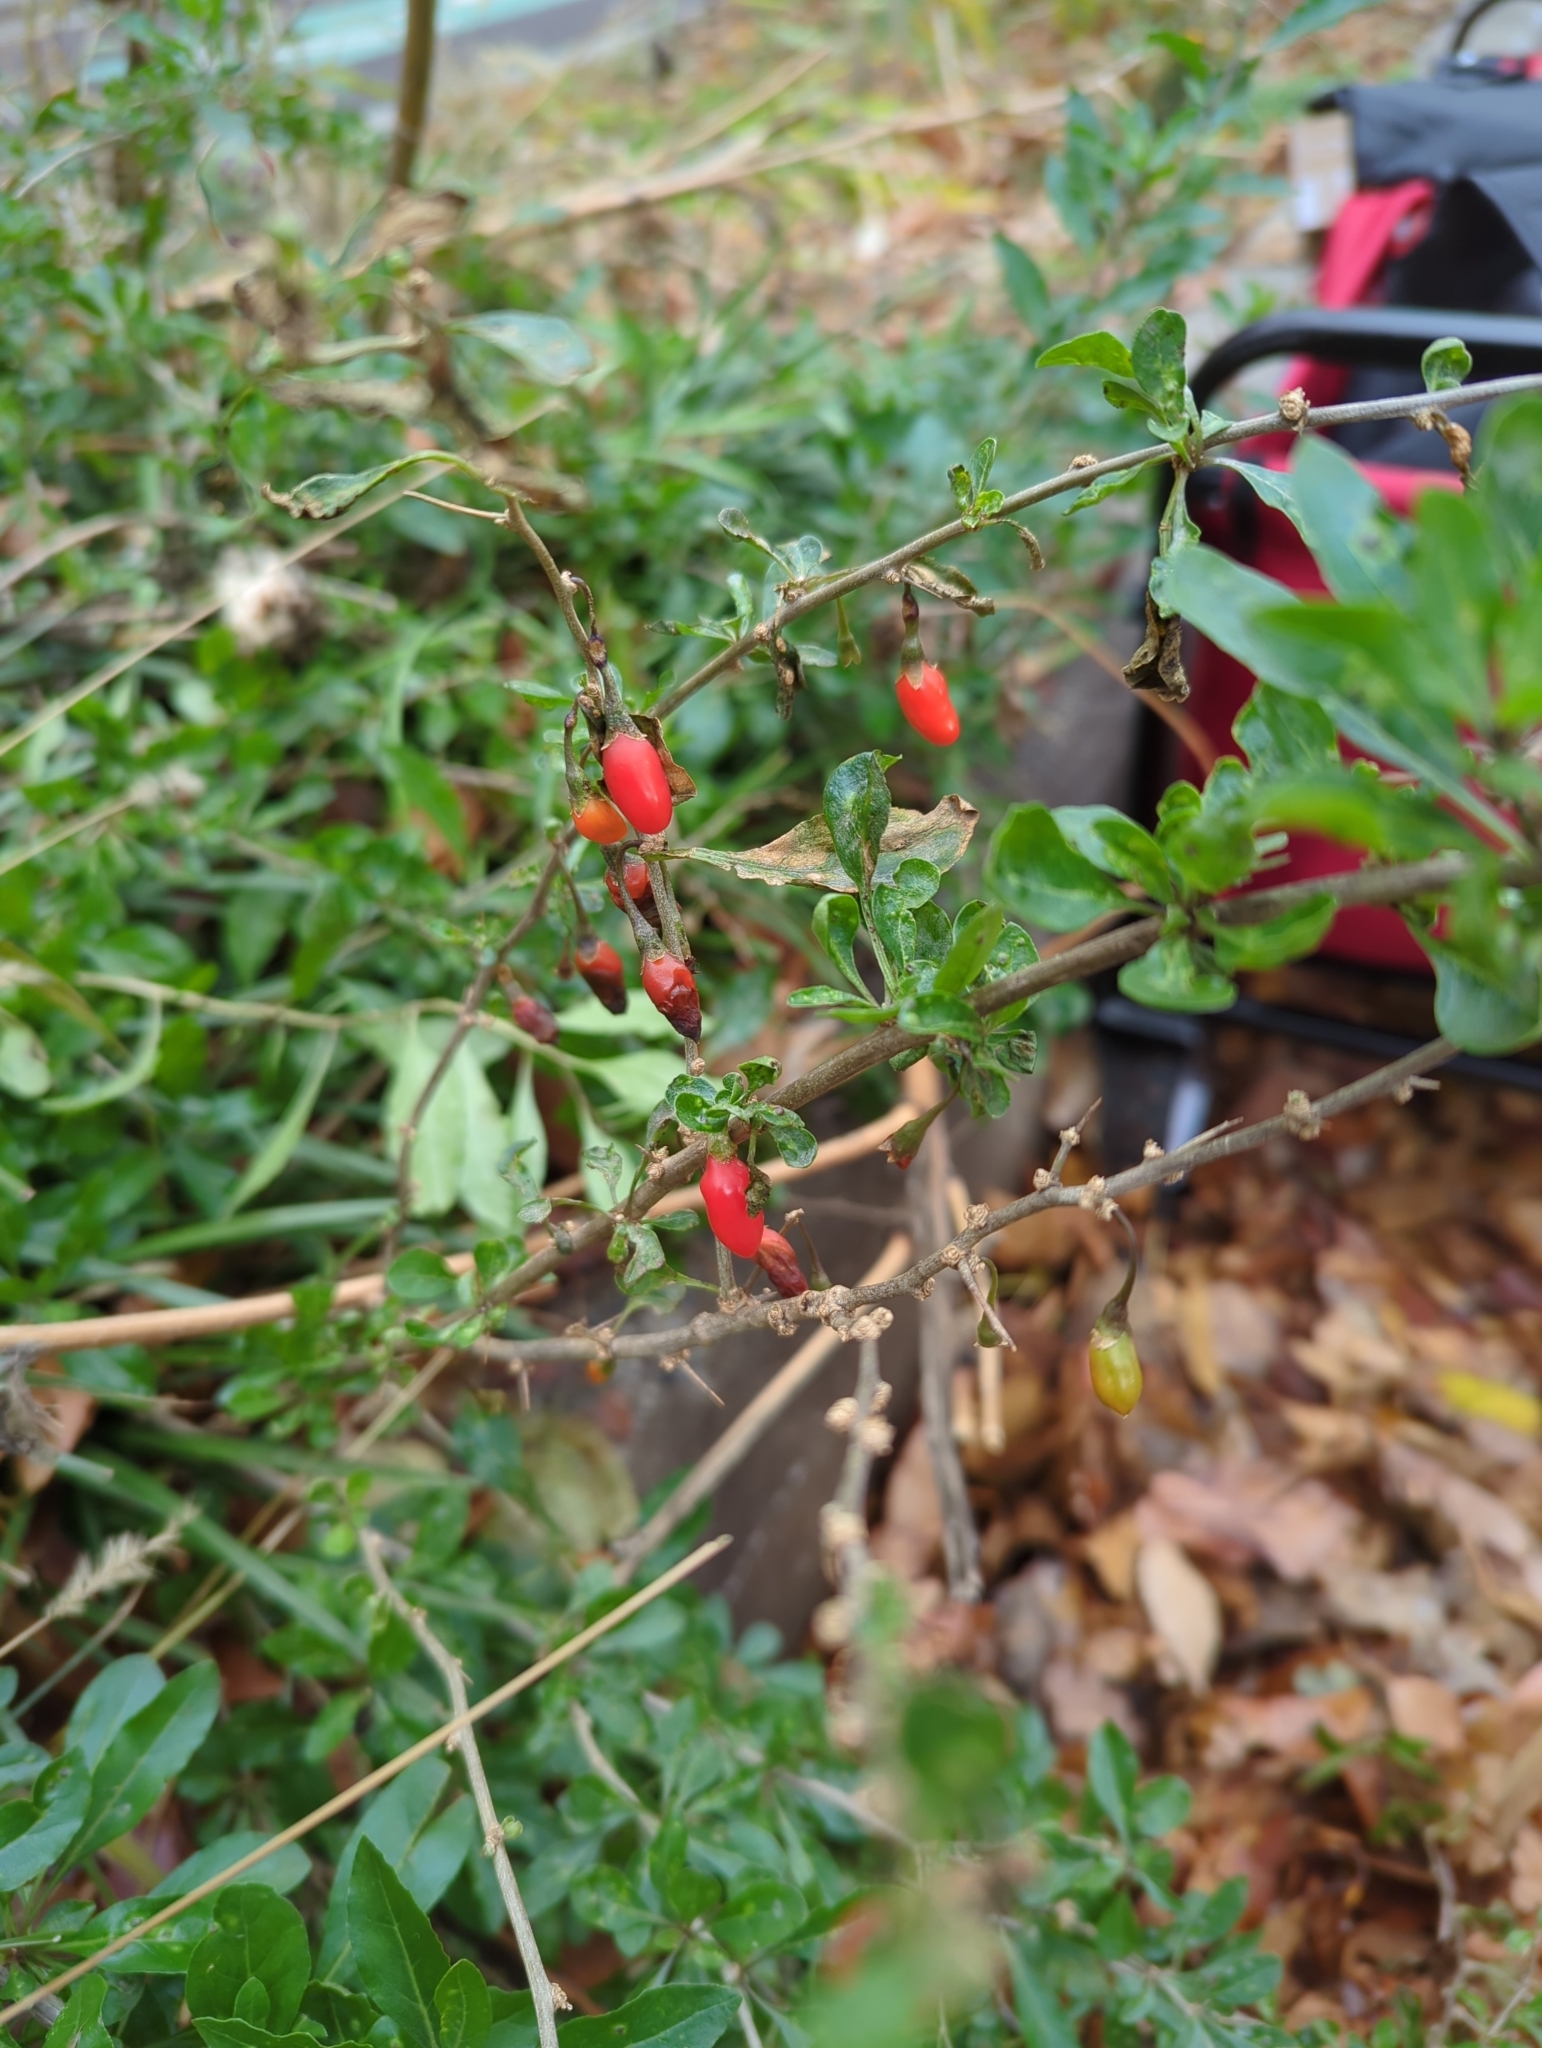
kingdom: Plantae
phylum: Tracheophyta
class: Magnoliopsida
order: Solanales
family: Solanaceae
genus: Lycium
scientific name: Lycium barbarum
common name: Duke of argyll's teaplant
